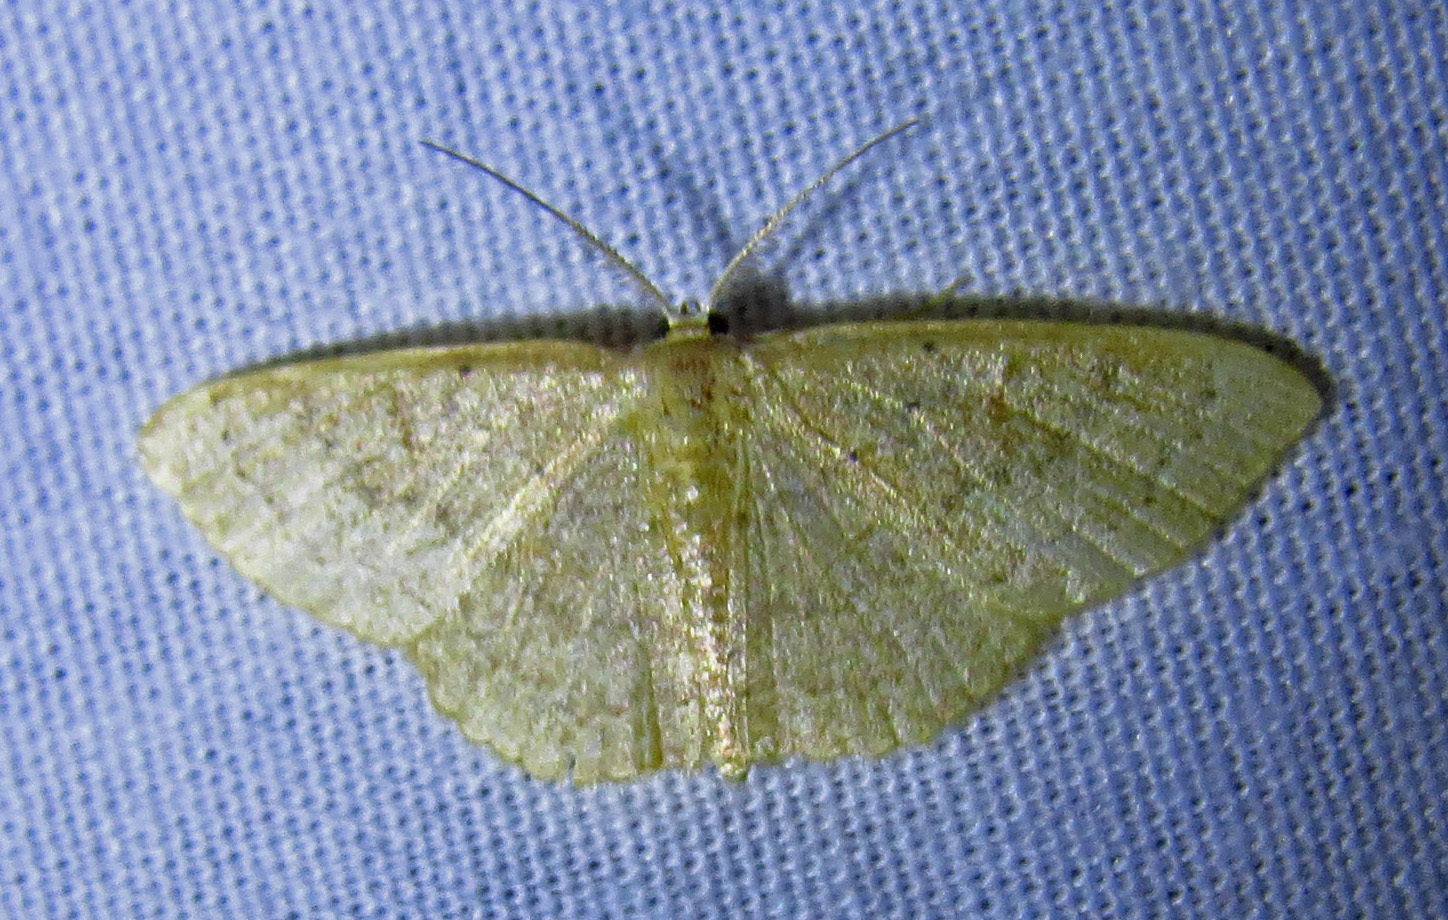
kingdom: Animalia
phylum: Arthropoda
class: Insecta
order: Lepidoptera
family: Geometridae
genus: Pleuroprucha
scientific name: Pleuroprucha insulsaria
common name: Common tan wave
